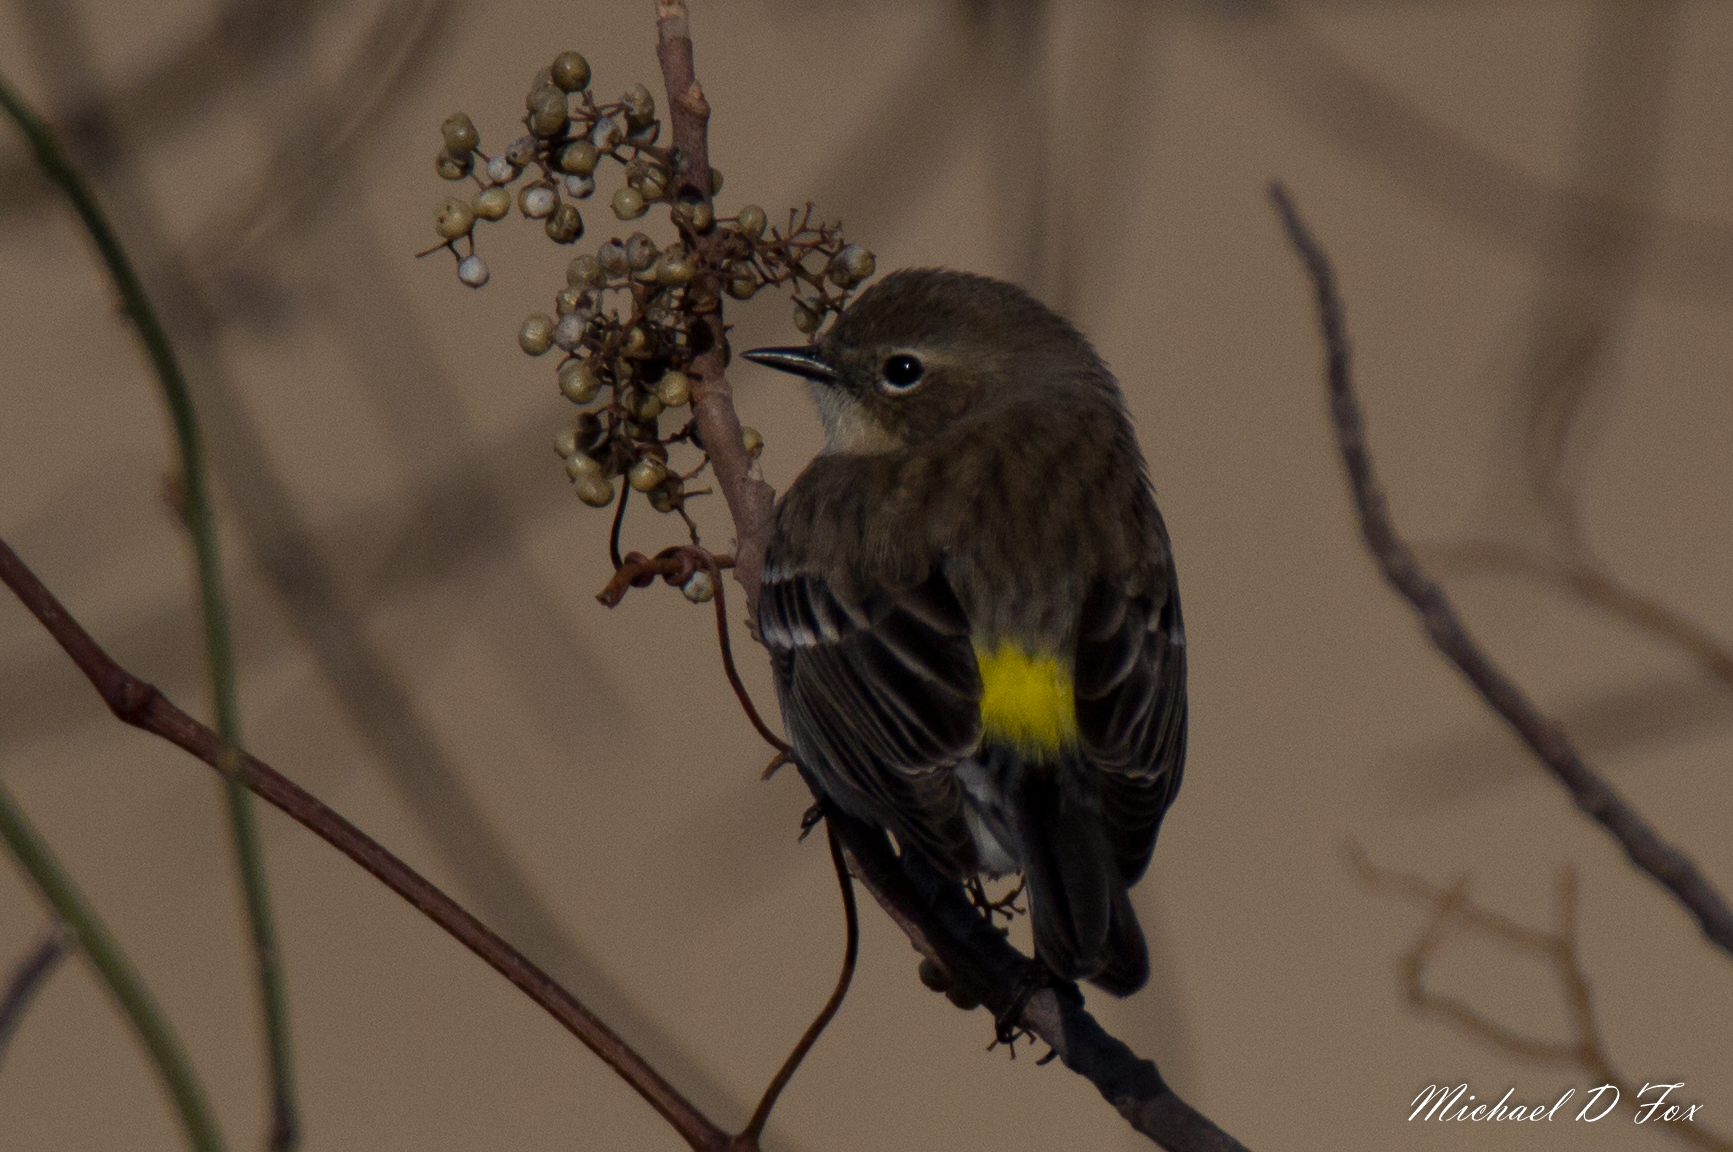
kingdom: Animalia
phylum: Chordata
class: Aves
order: Passeriformes
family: Parulidae
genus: Setophaga
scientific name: Setophaga coronata
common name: Myrtle warbler
